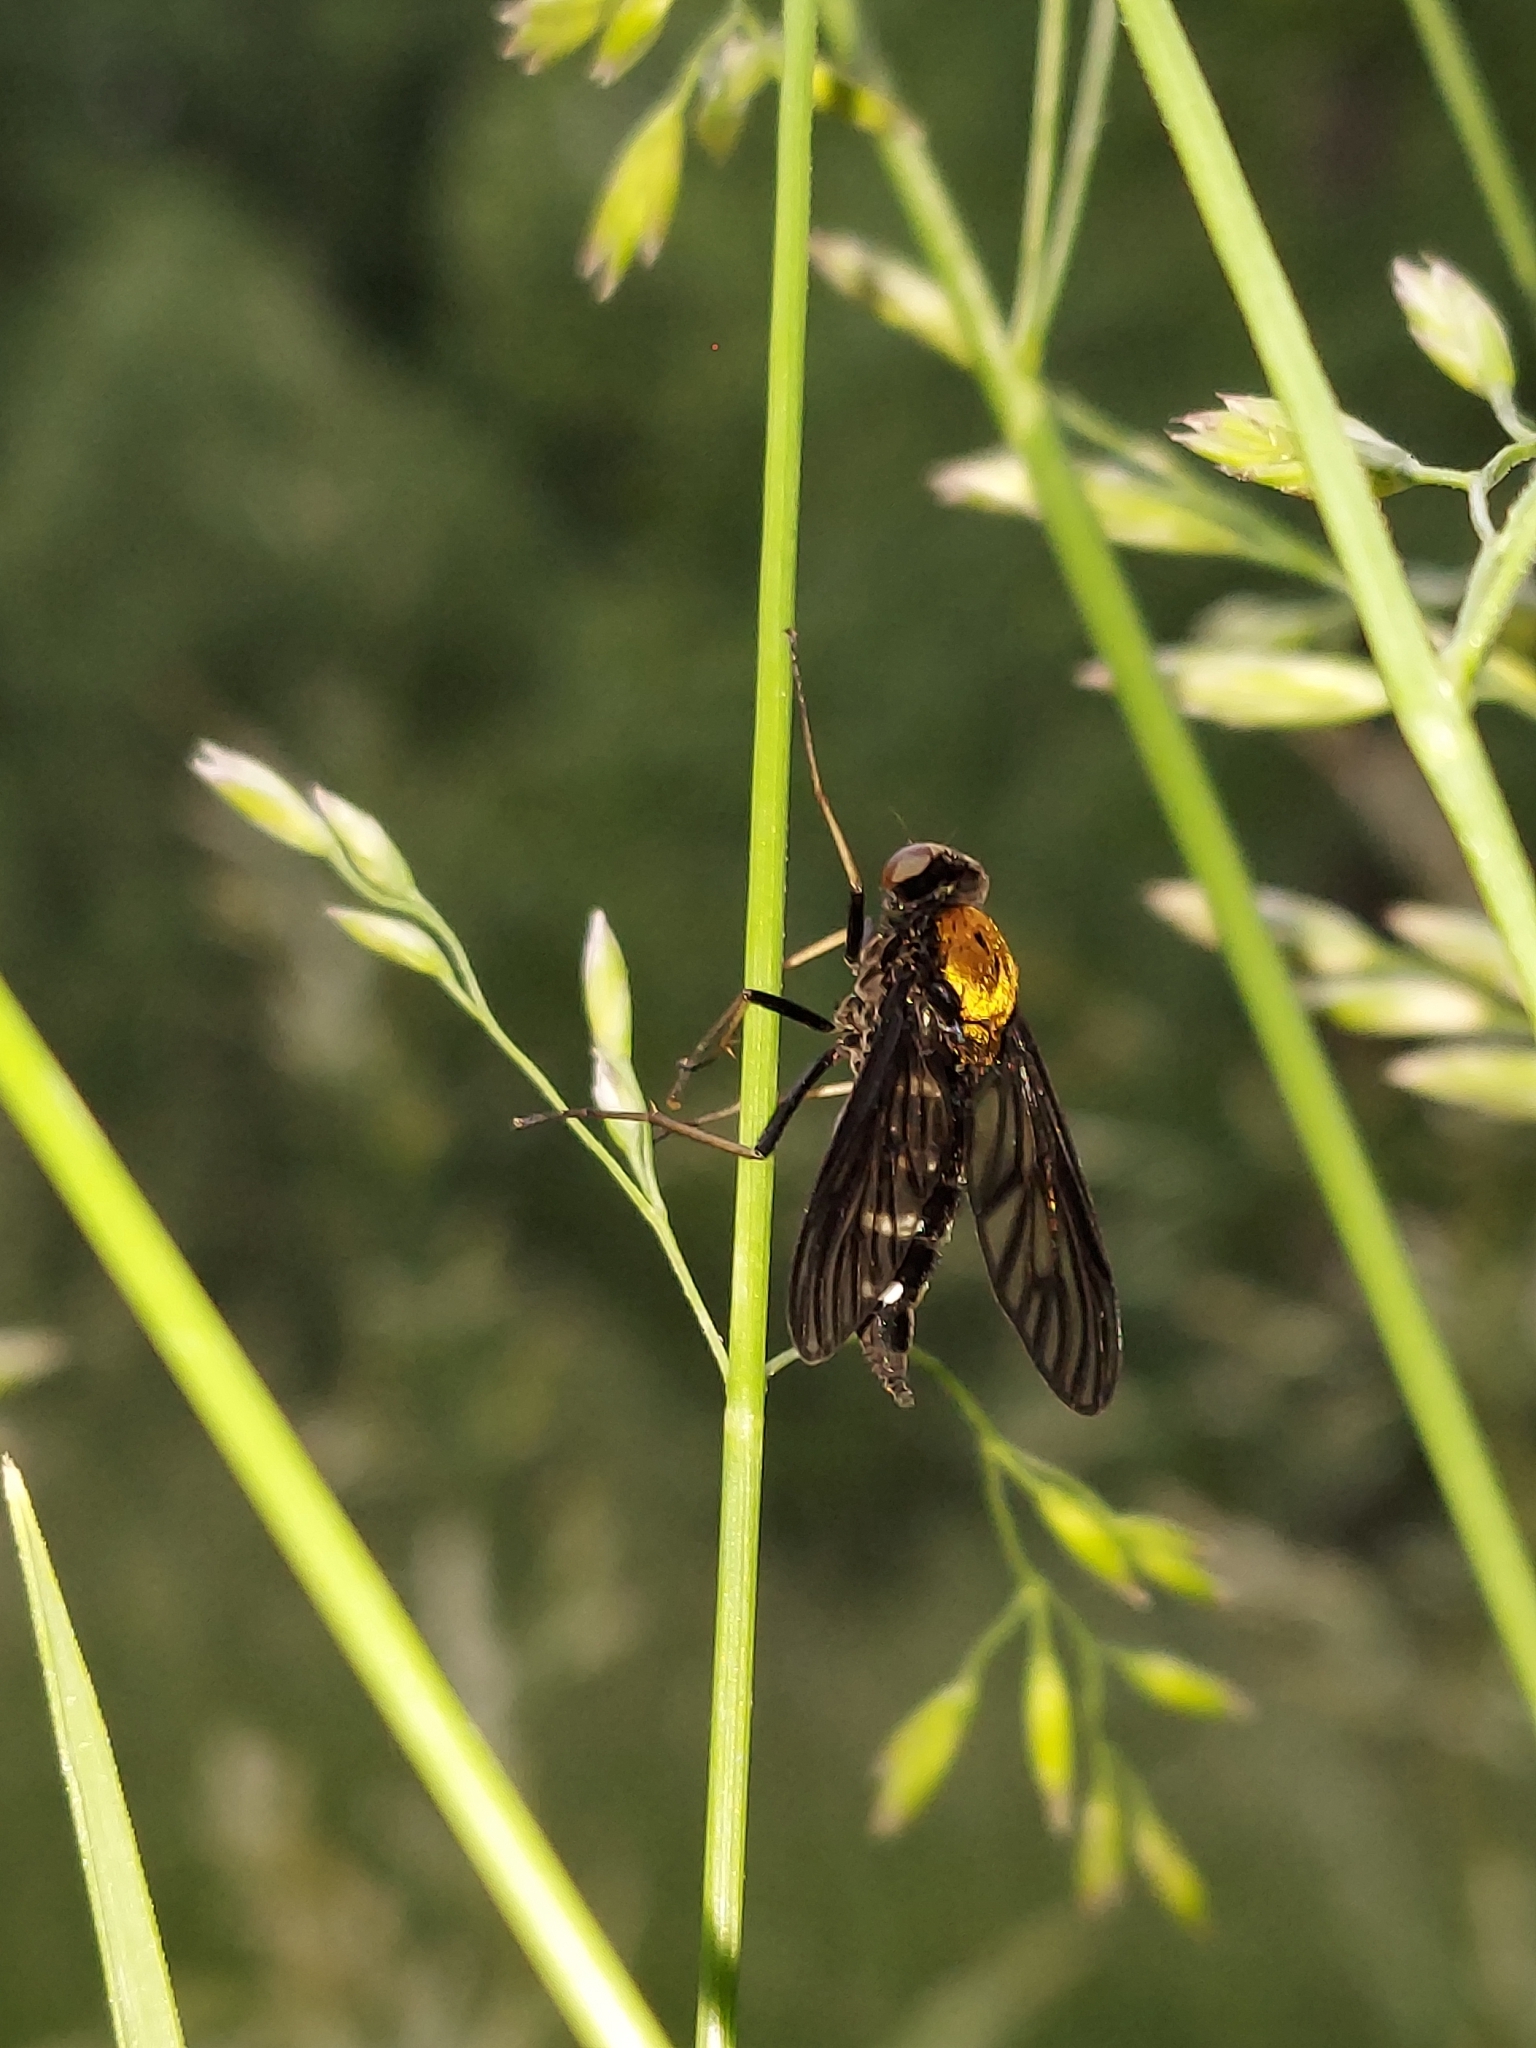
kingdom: Animalia
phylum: Arthropoda
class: Insecta
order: Diptera
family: Rhagionidae
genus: Chrysopilus
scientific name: Chrysopilus thoracicus
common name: Golden-backed snipe fly
